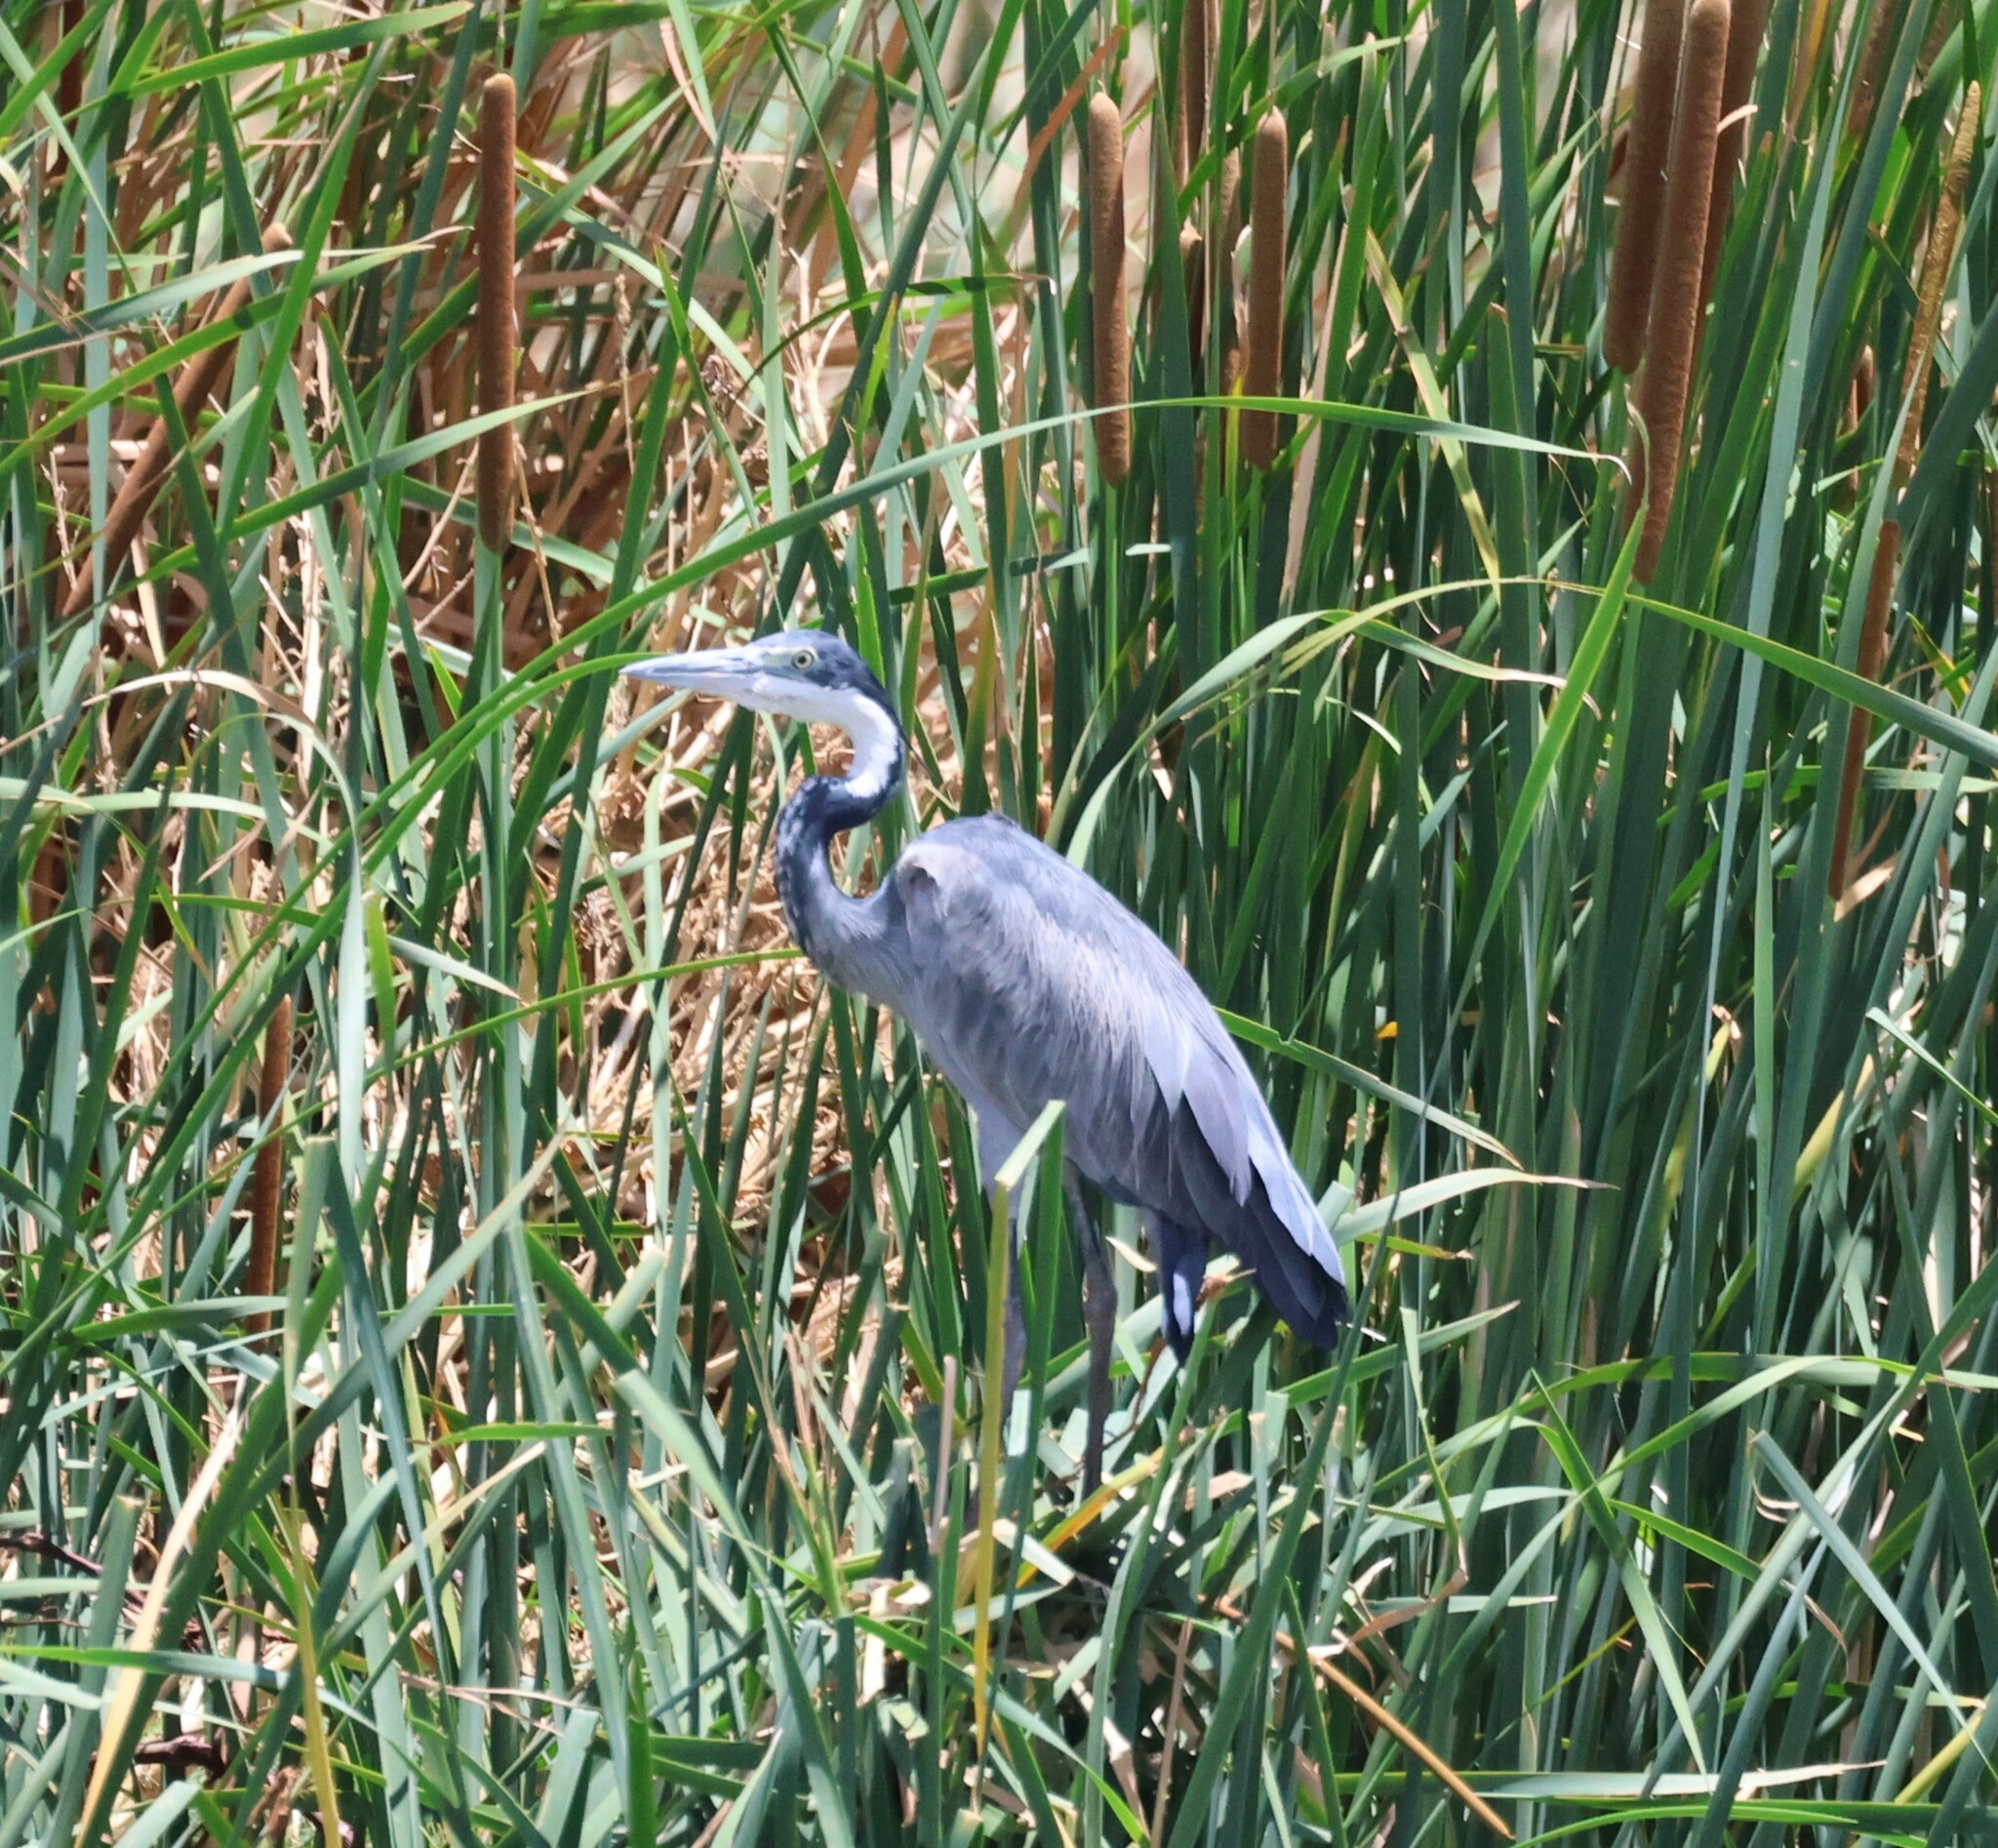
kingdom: Animalia
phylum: Chordata
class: Aves
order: Pelecaniformes
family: Ardeidae
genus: Ardea
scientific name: Ardea melanocephala
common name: Black-headed heron
